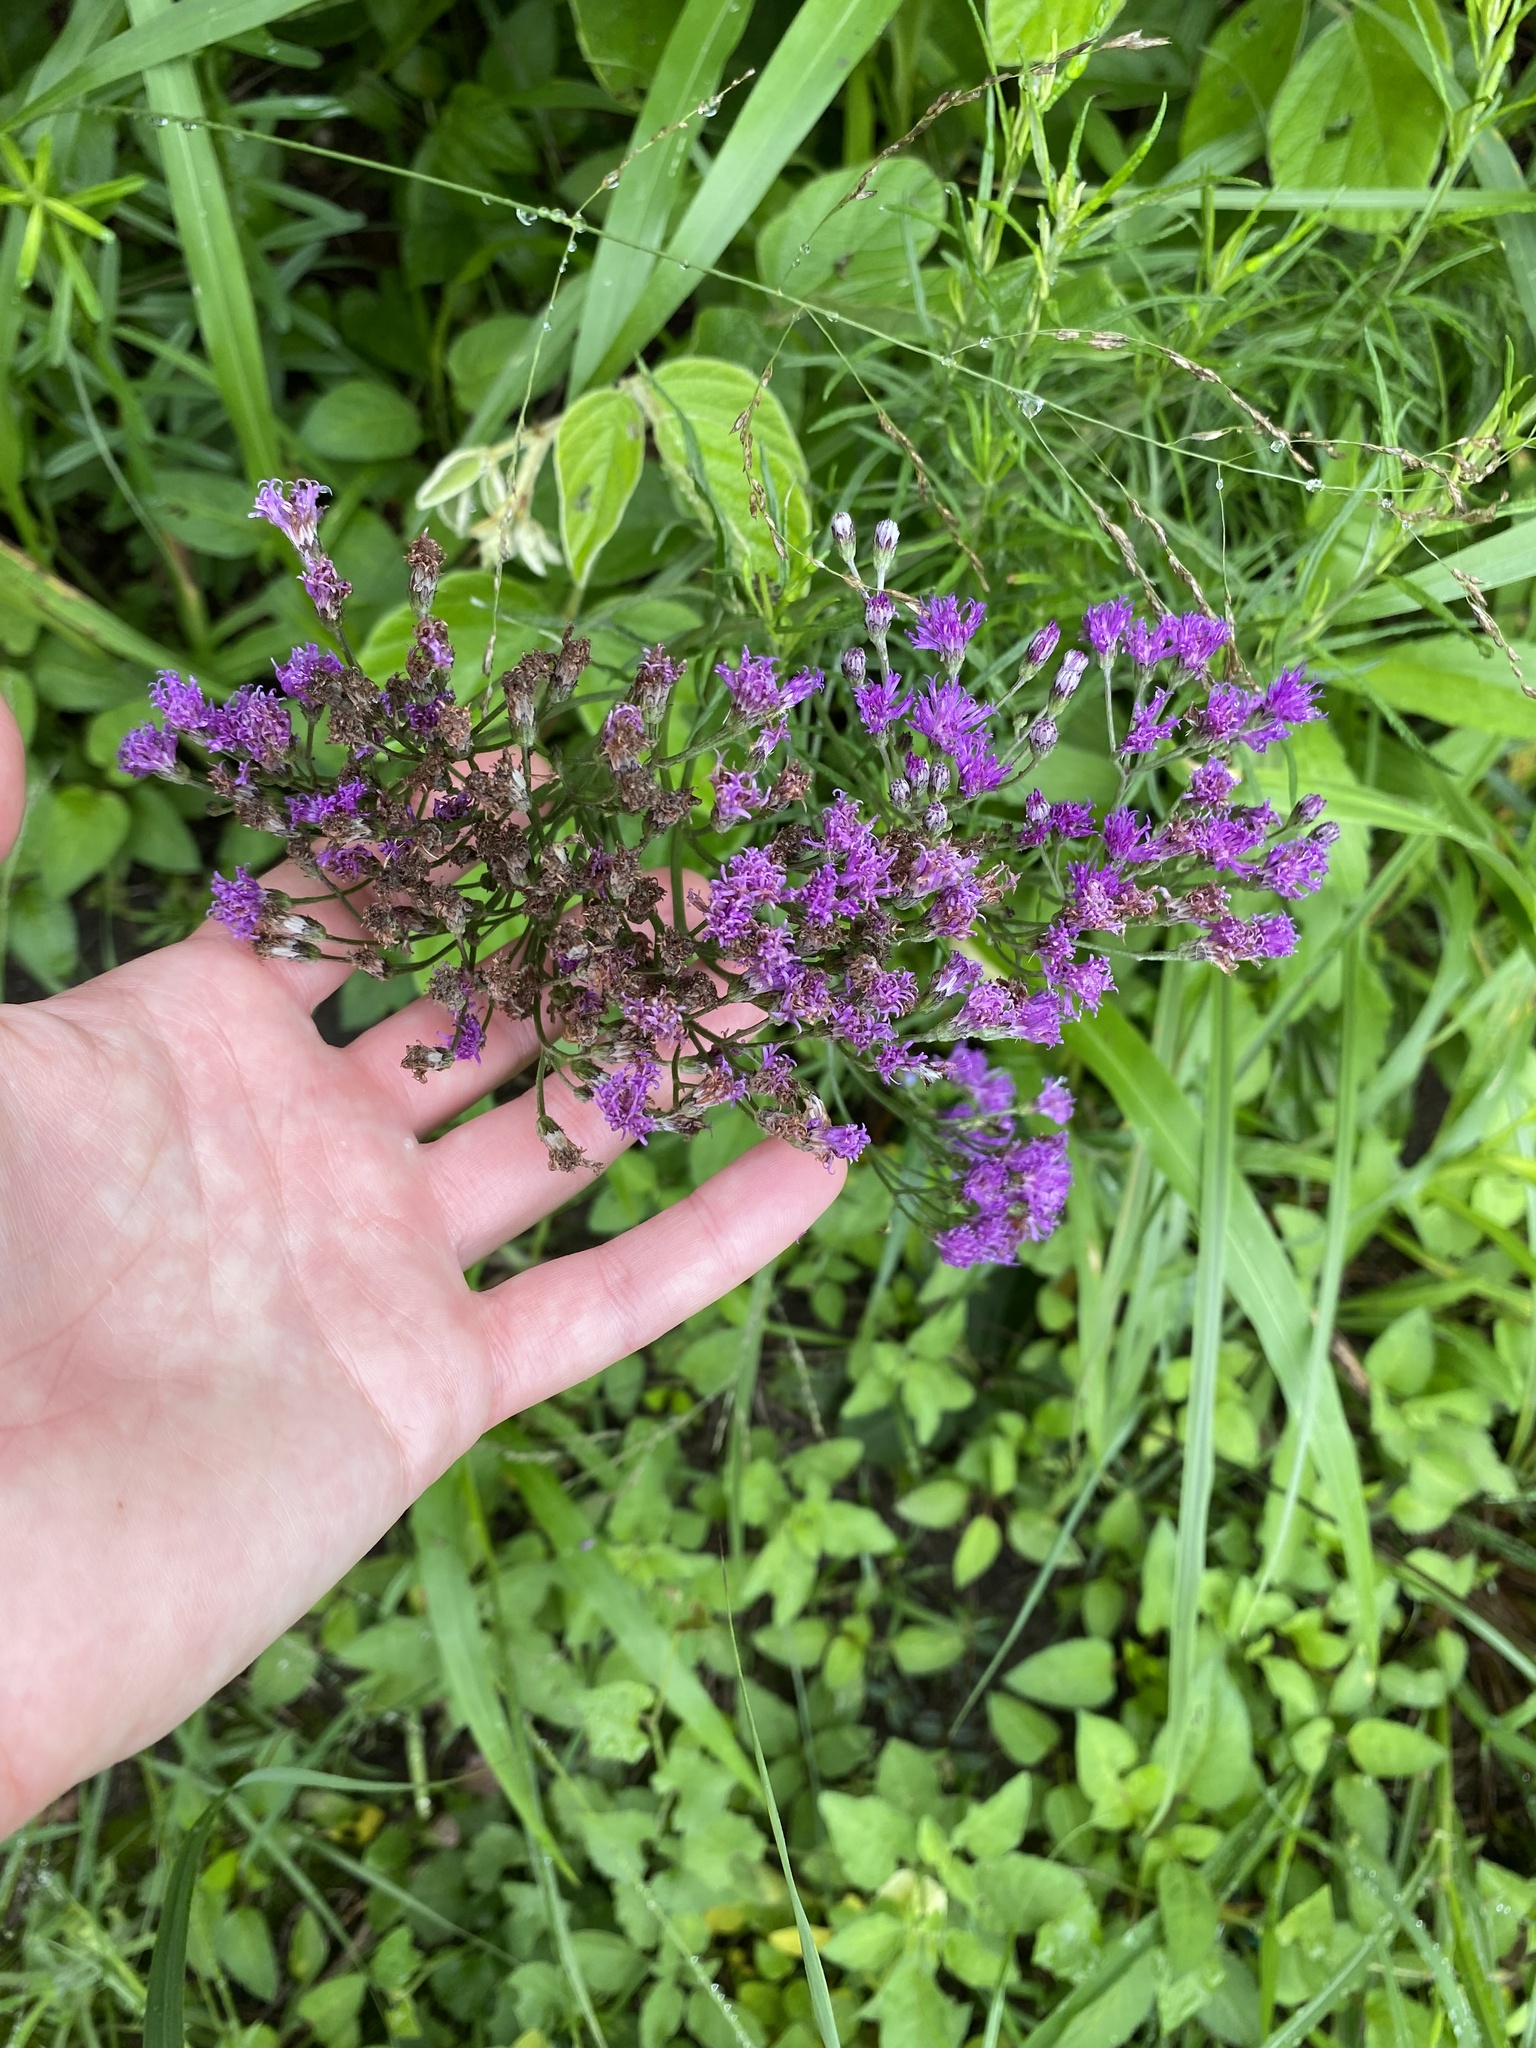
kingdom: Plantae
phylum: Tracheophyta
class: Magnoliopsida
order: Asterales
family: Asteraceae
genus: Hilliardiella
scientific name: Hilliardiella capensis
